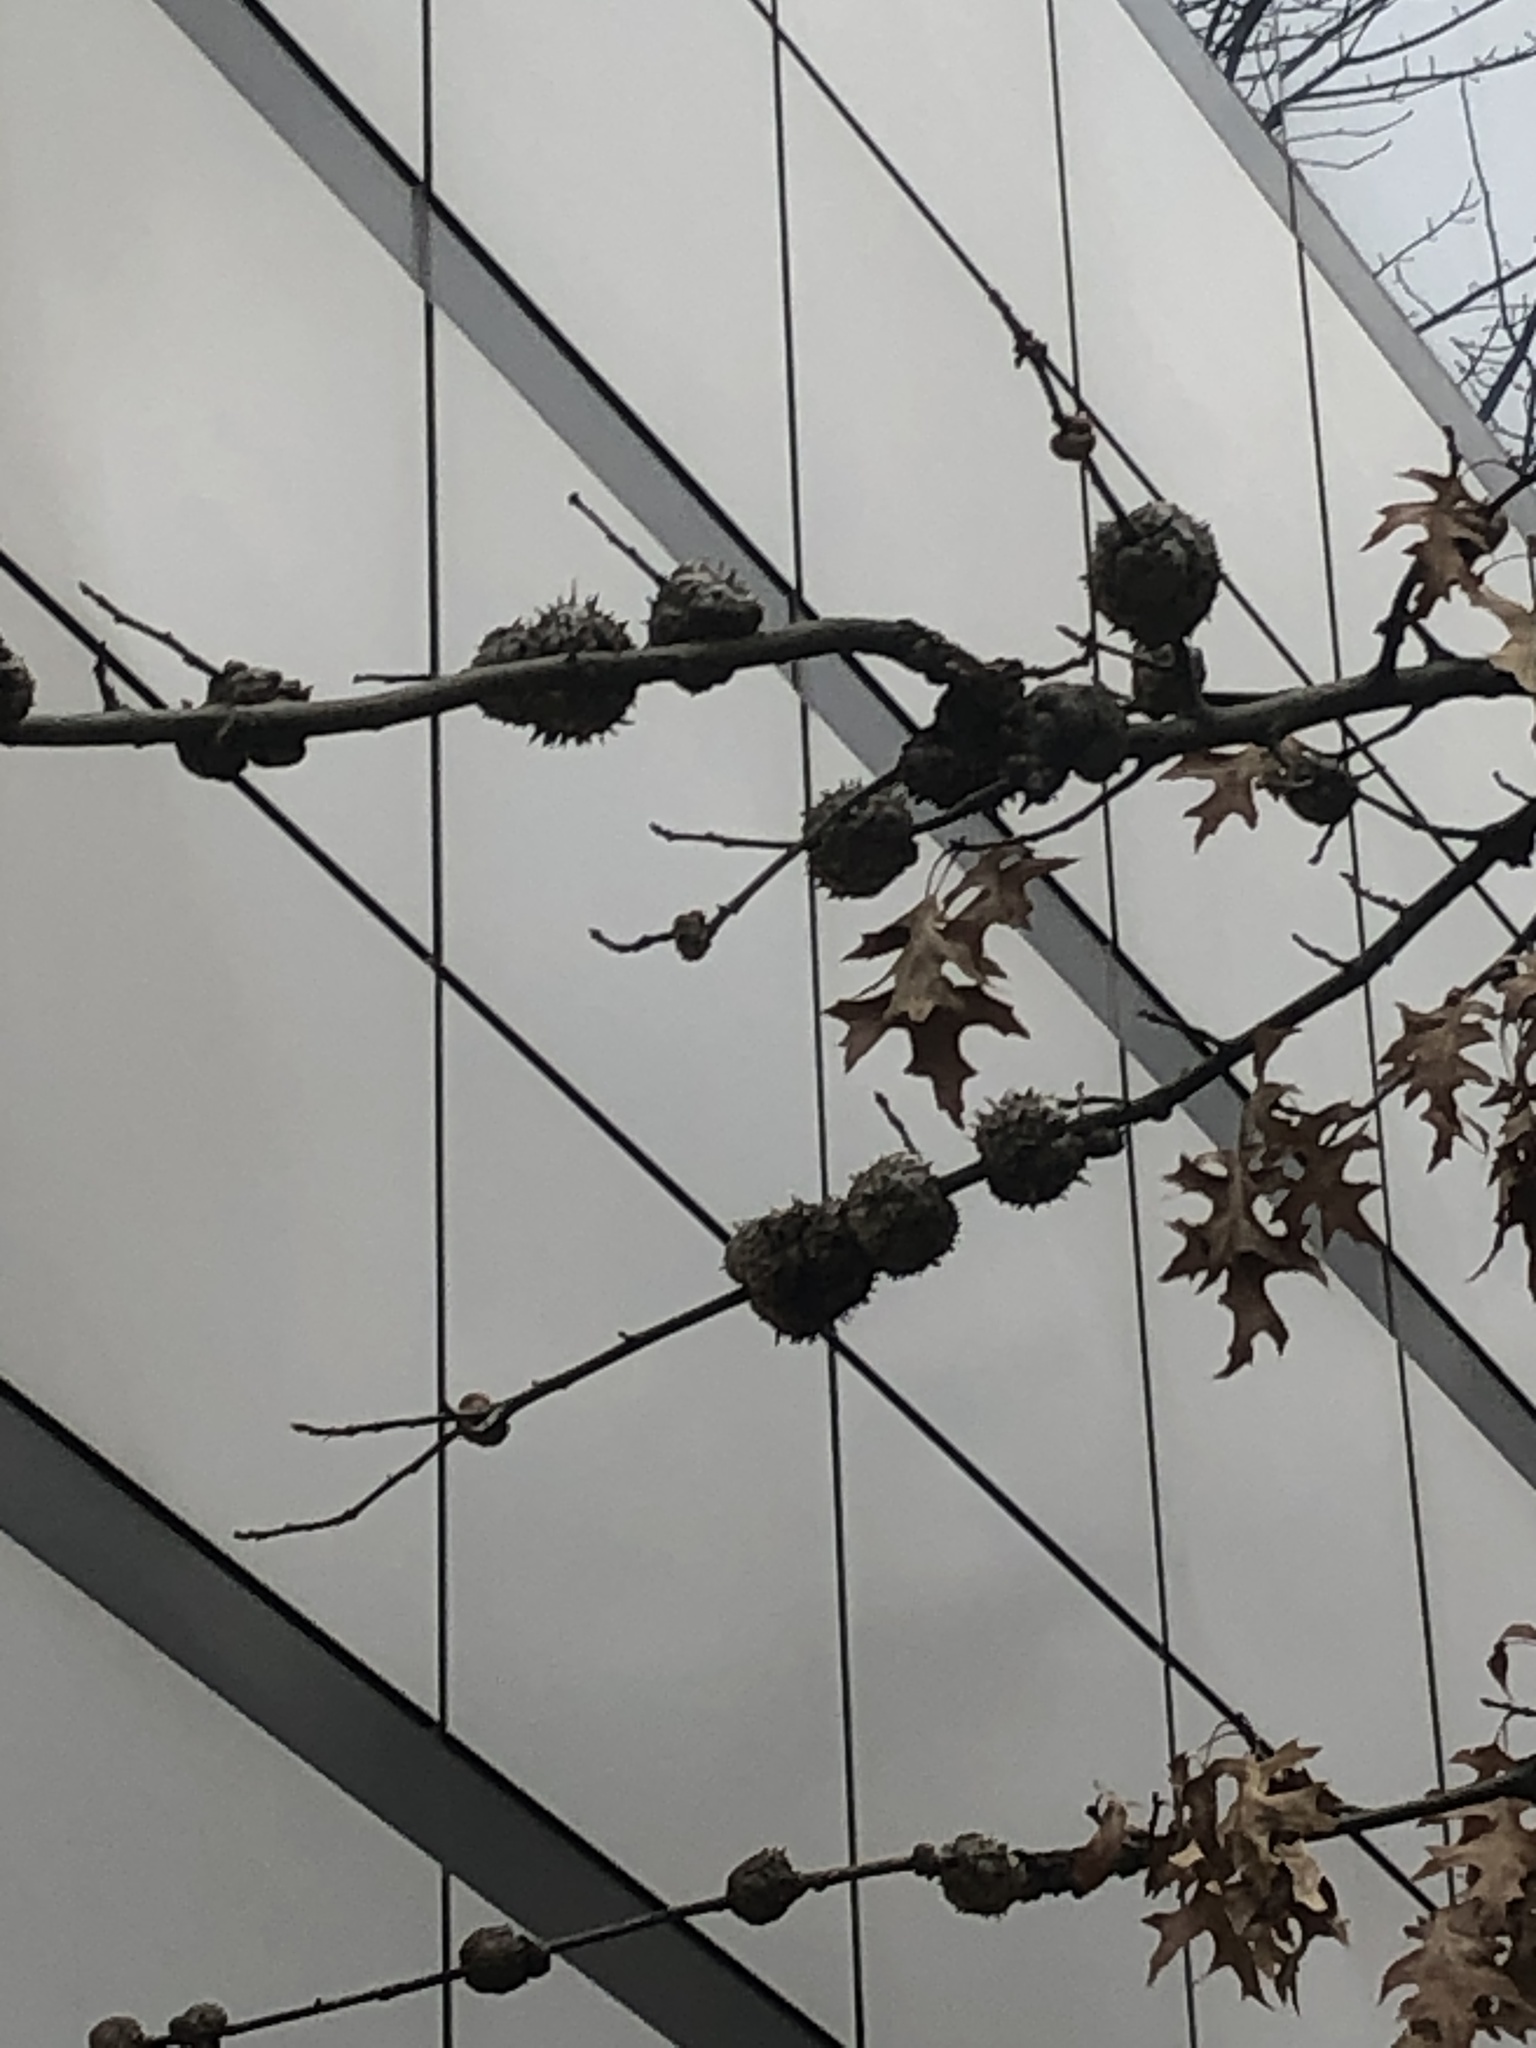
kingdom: Animalia
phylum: Arthropoda
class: Insecta
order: Hymenoptera
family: Cynipidae
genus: Callirhytis
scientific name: Callirhytis
